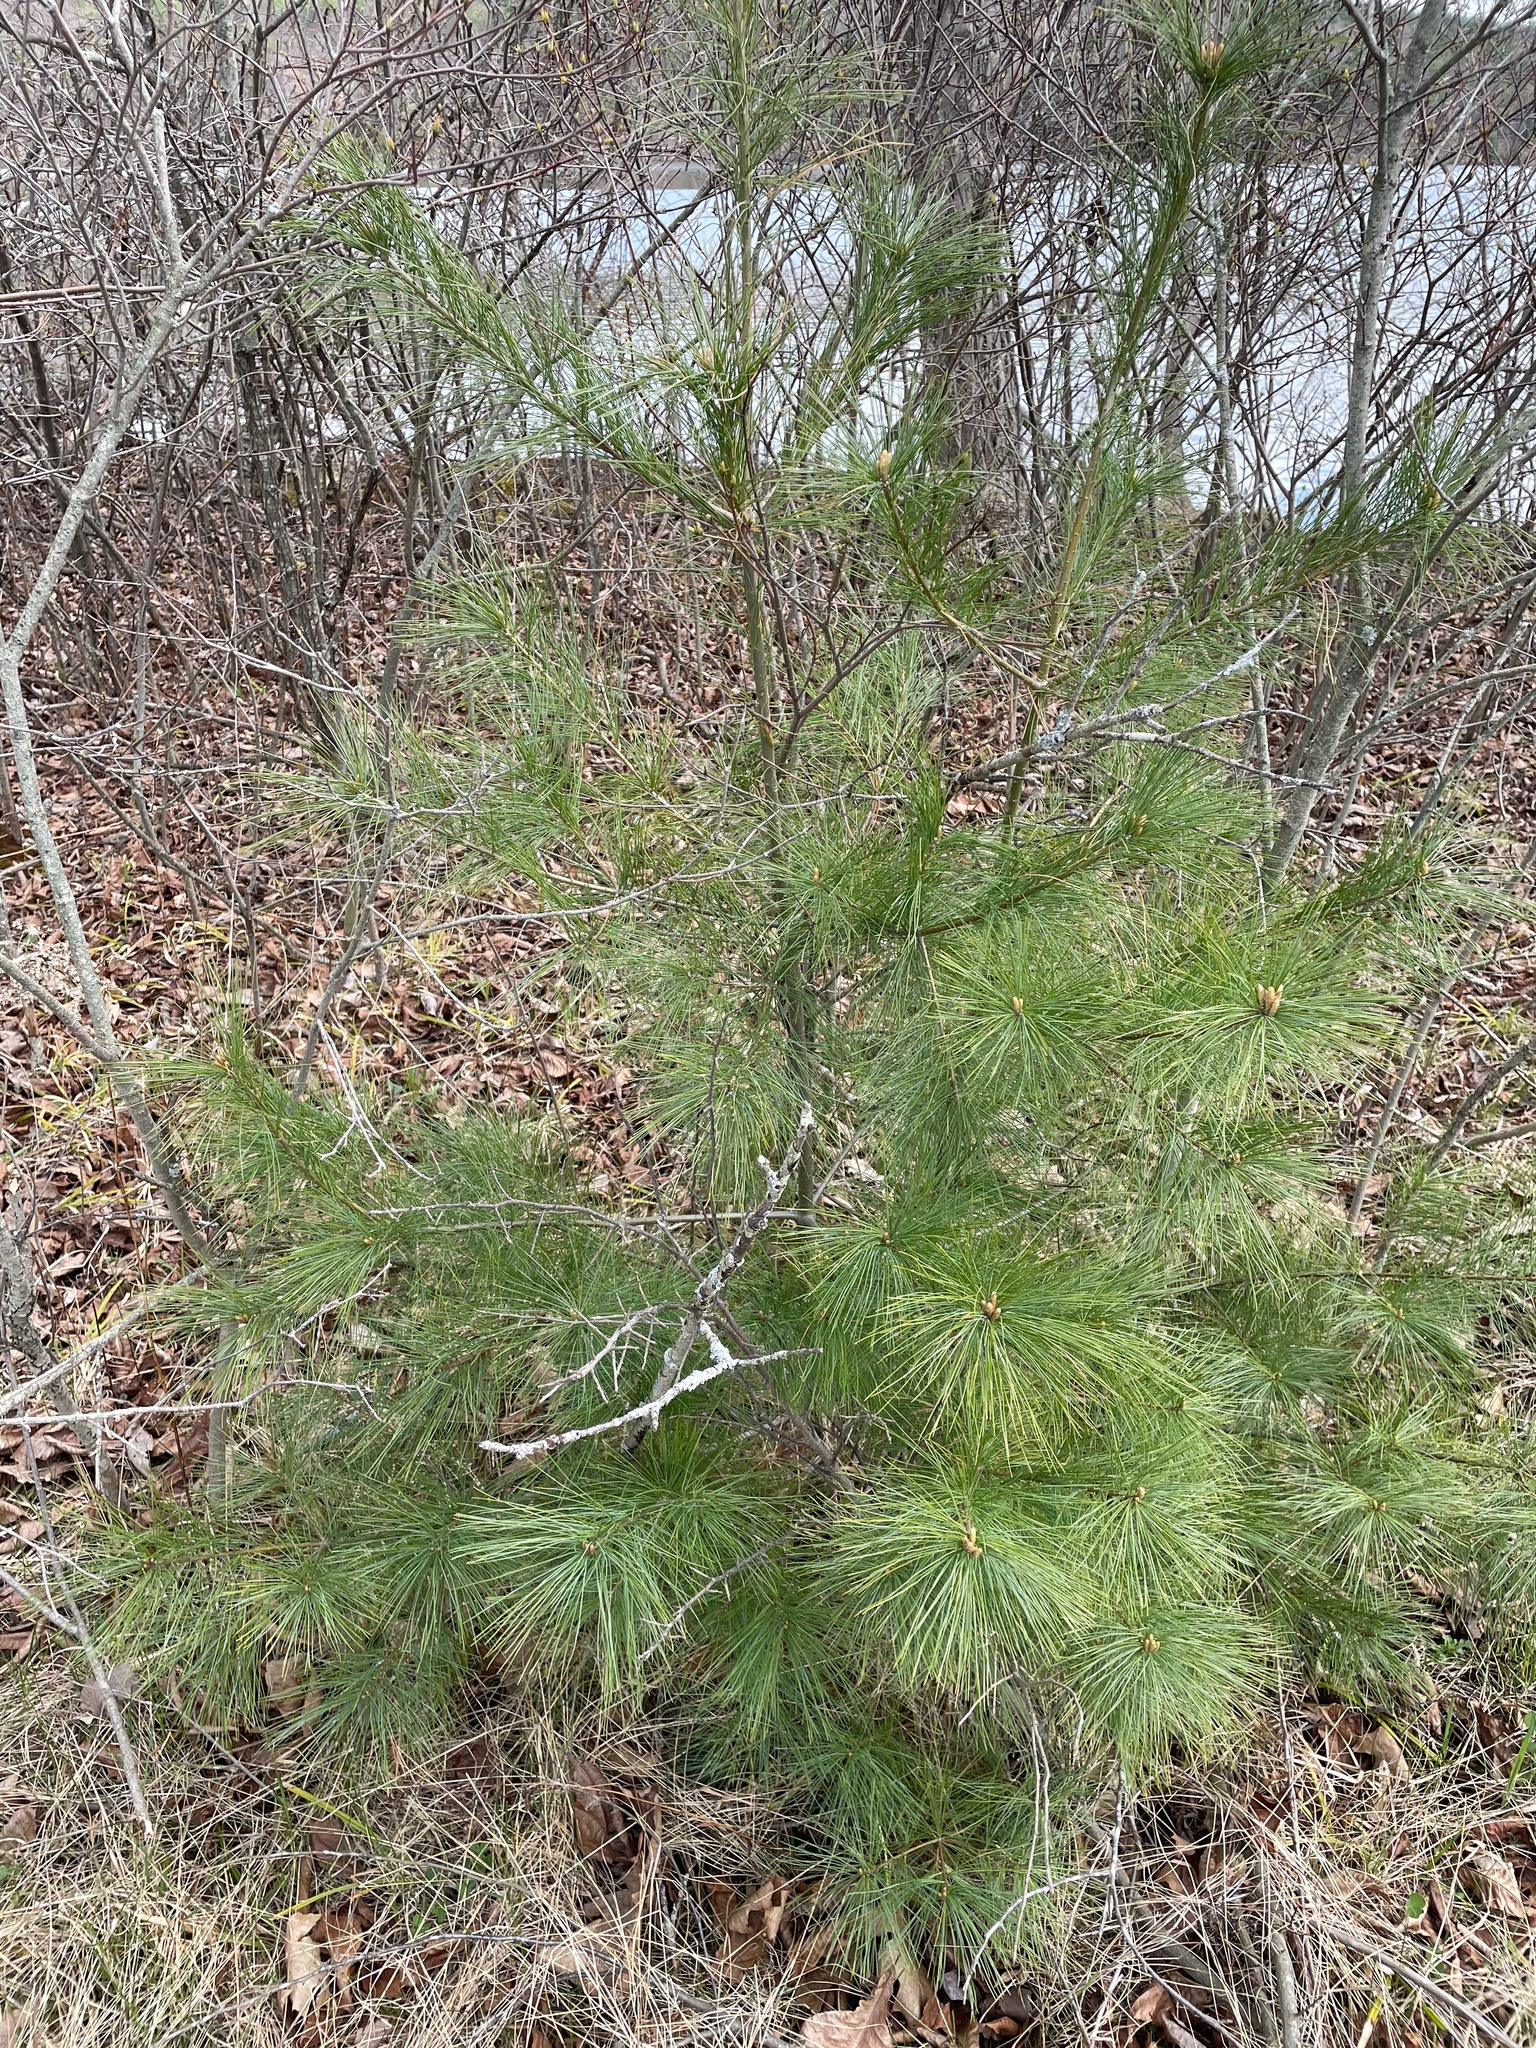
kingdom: Plantae
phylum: Tracheophyta
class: Pinopsida
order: Pinales
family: Pinaceae
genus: Pinus
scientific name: Pinus strobus
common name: Weymouth pine
